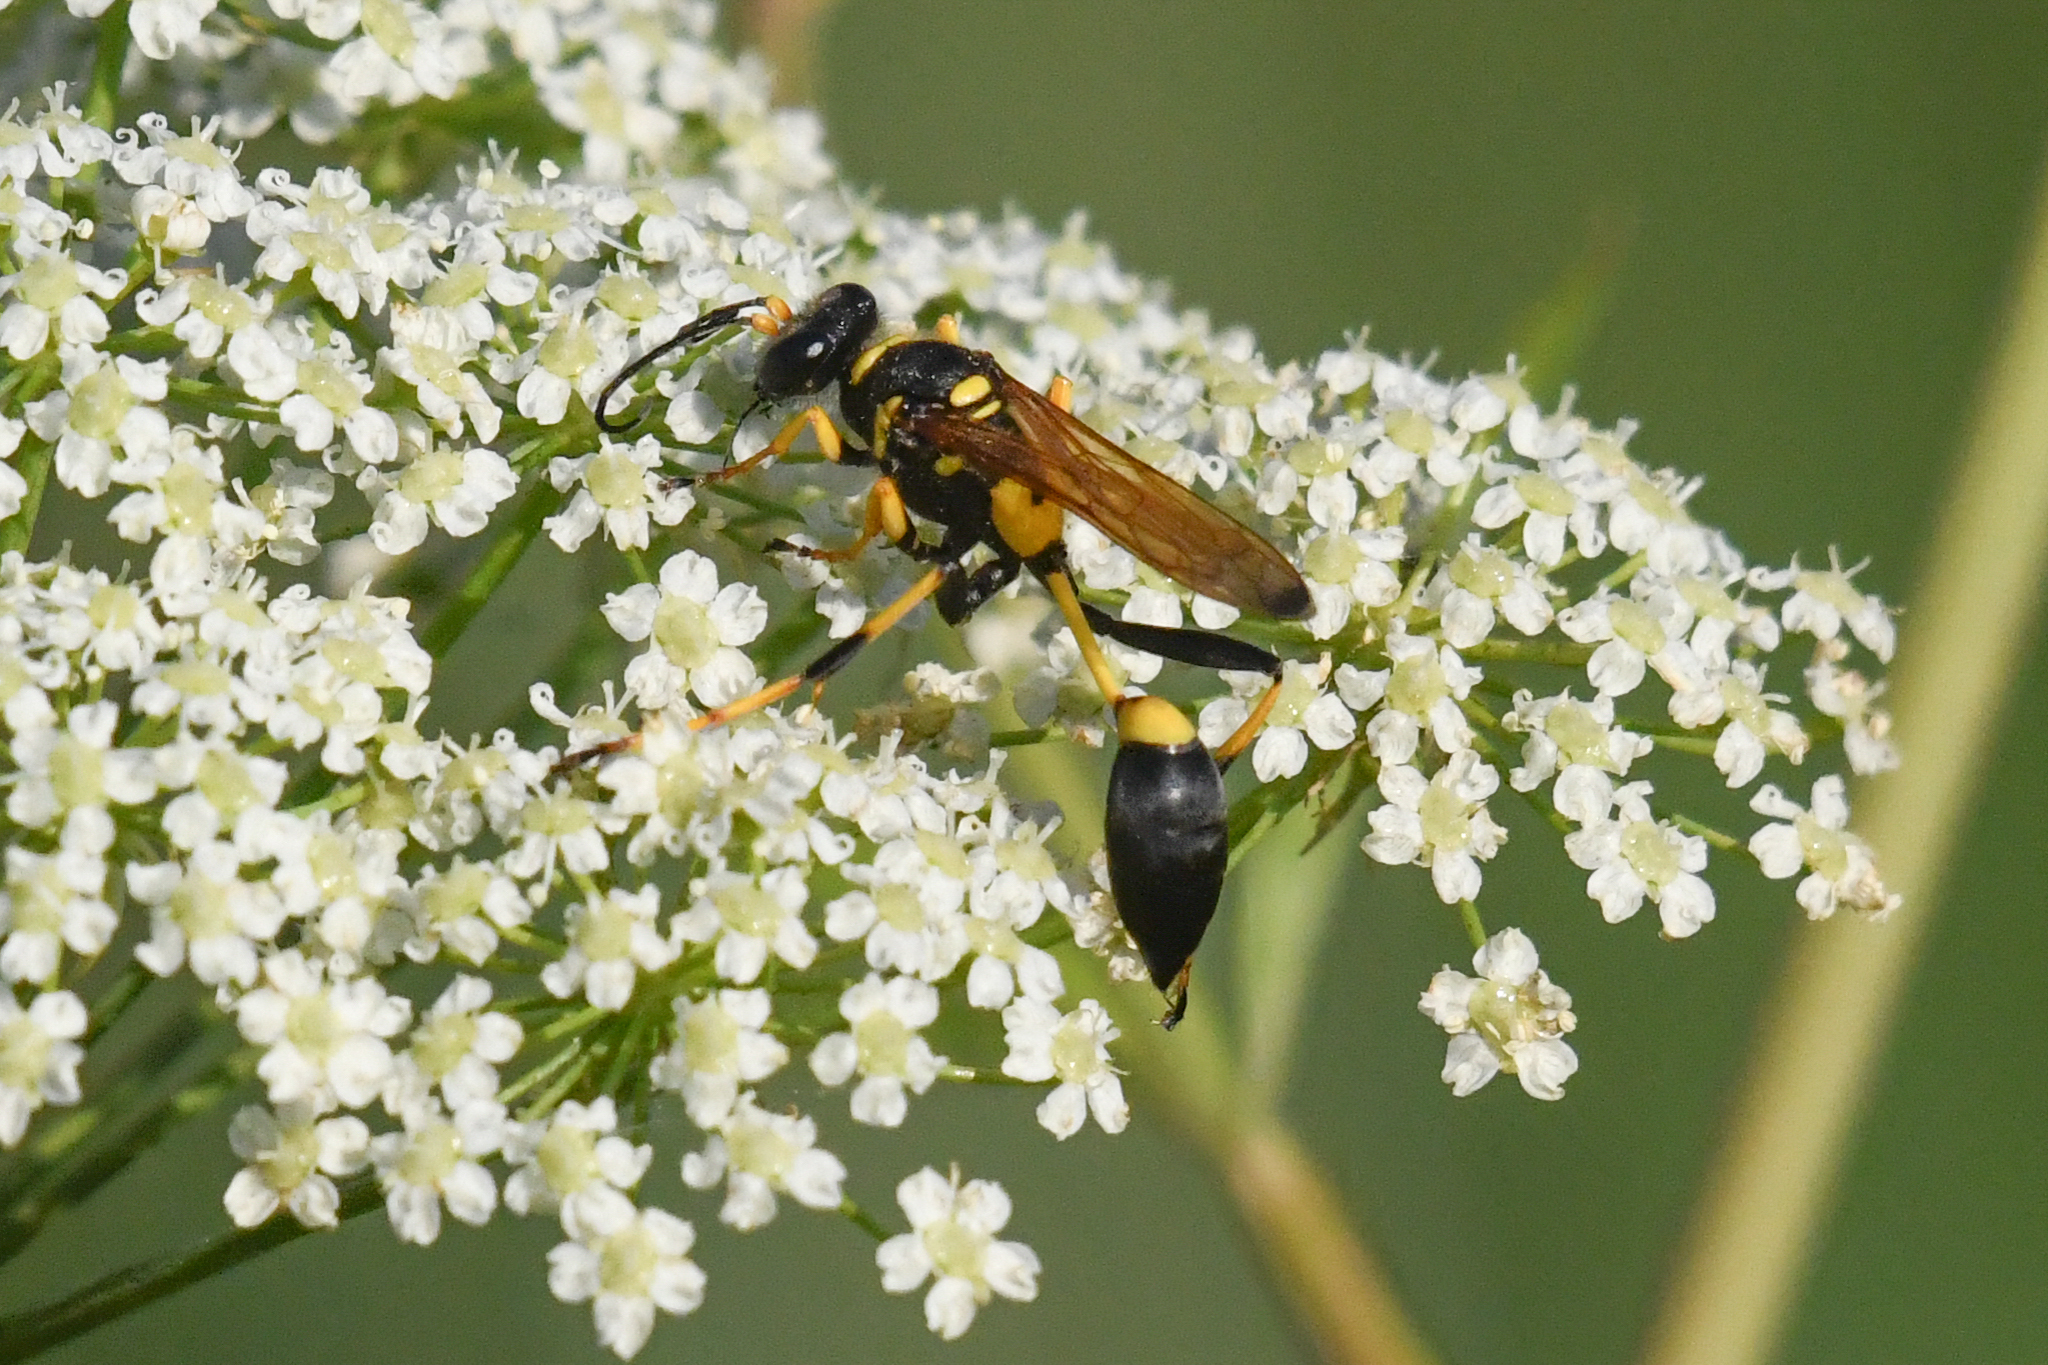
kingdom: Animalia
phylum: Arthropoda
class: Insecta
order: Hymenoptera
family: Sphecidae
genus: Sceliphron
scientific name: Sceliphron caementarium
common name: Mud dauber
